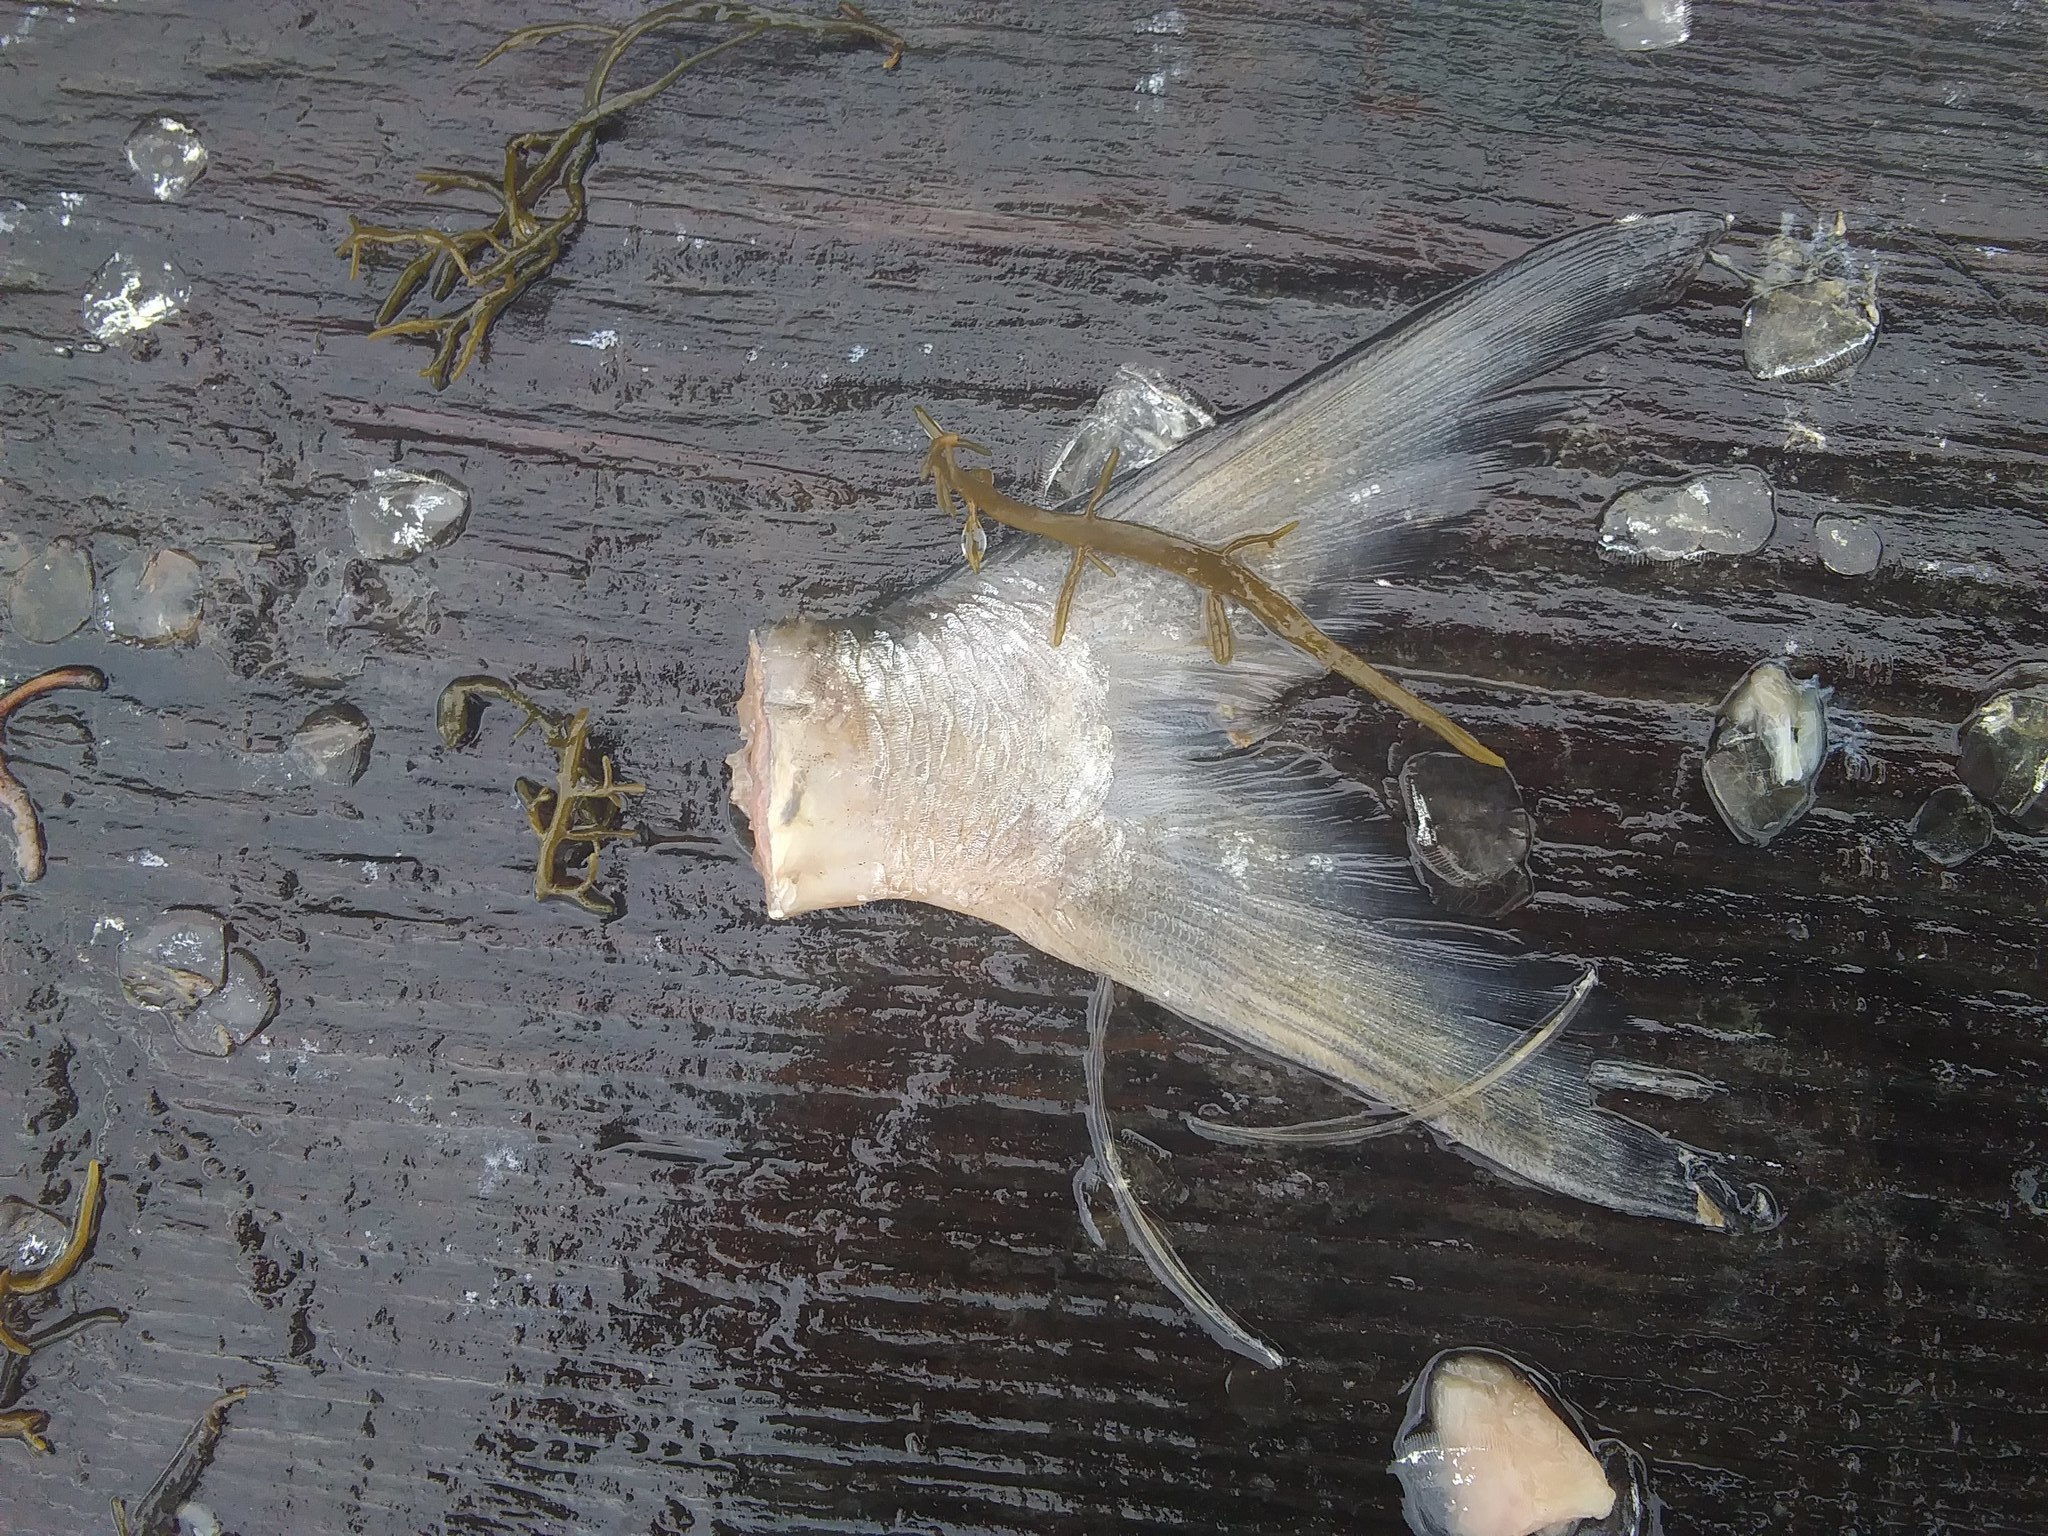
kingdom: Animalia
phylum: Chordata
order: Perciformes
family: Moronidae
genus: Morone
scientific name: Morone americana
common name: White perch
